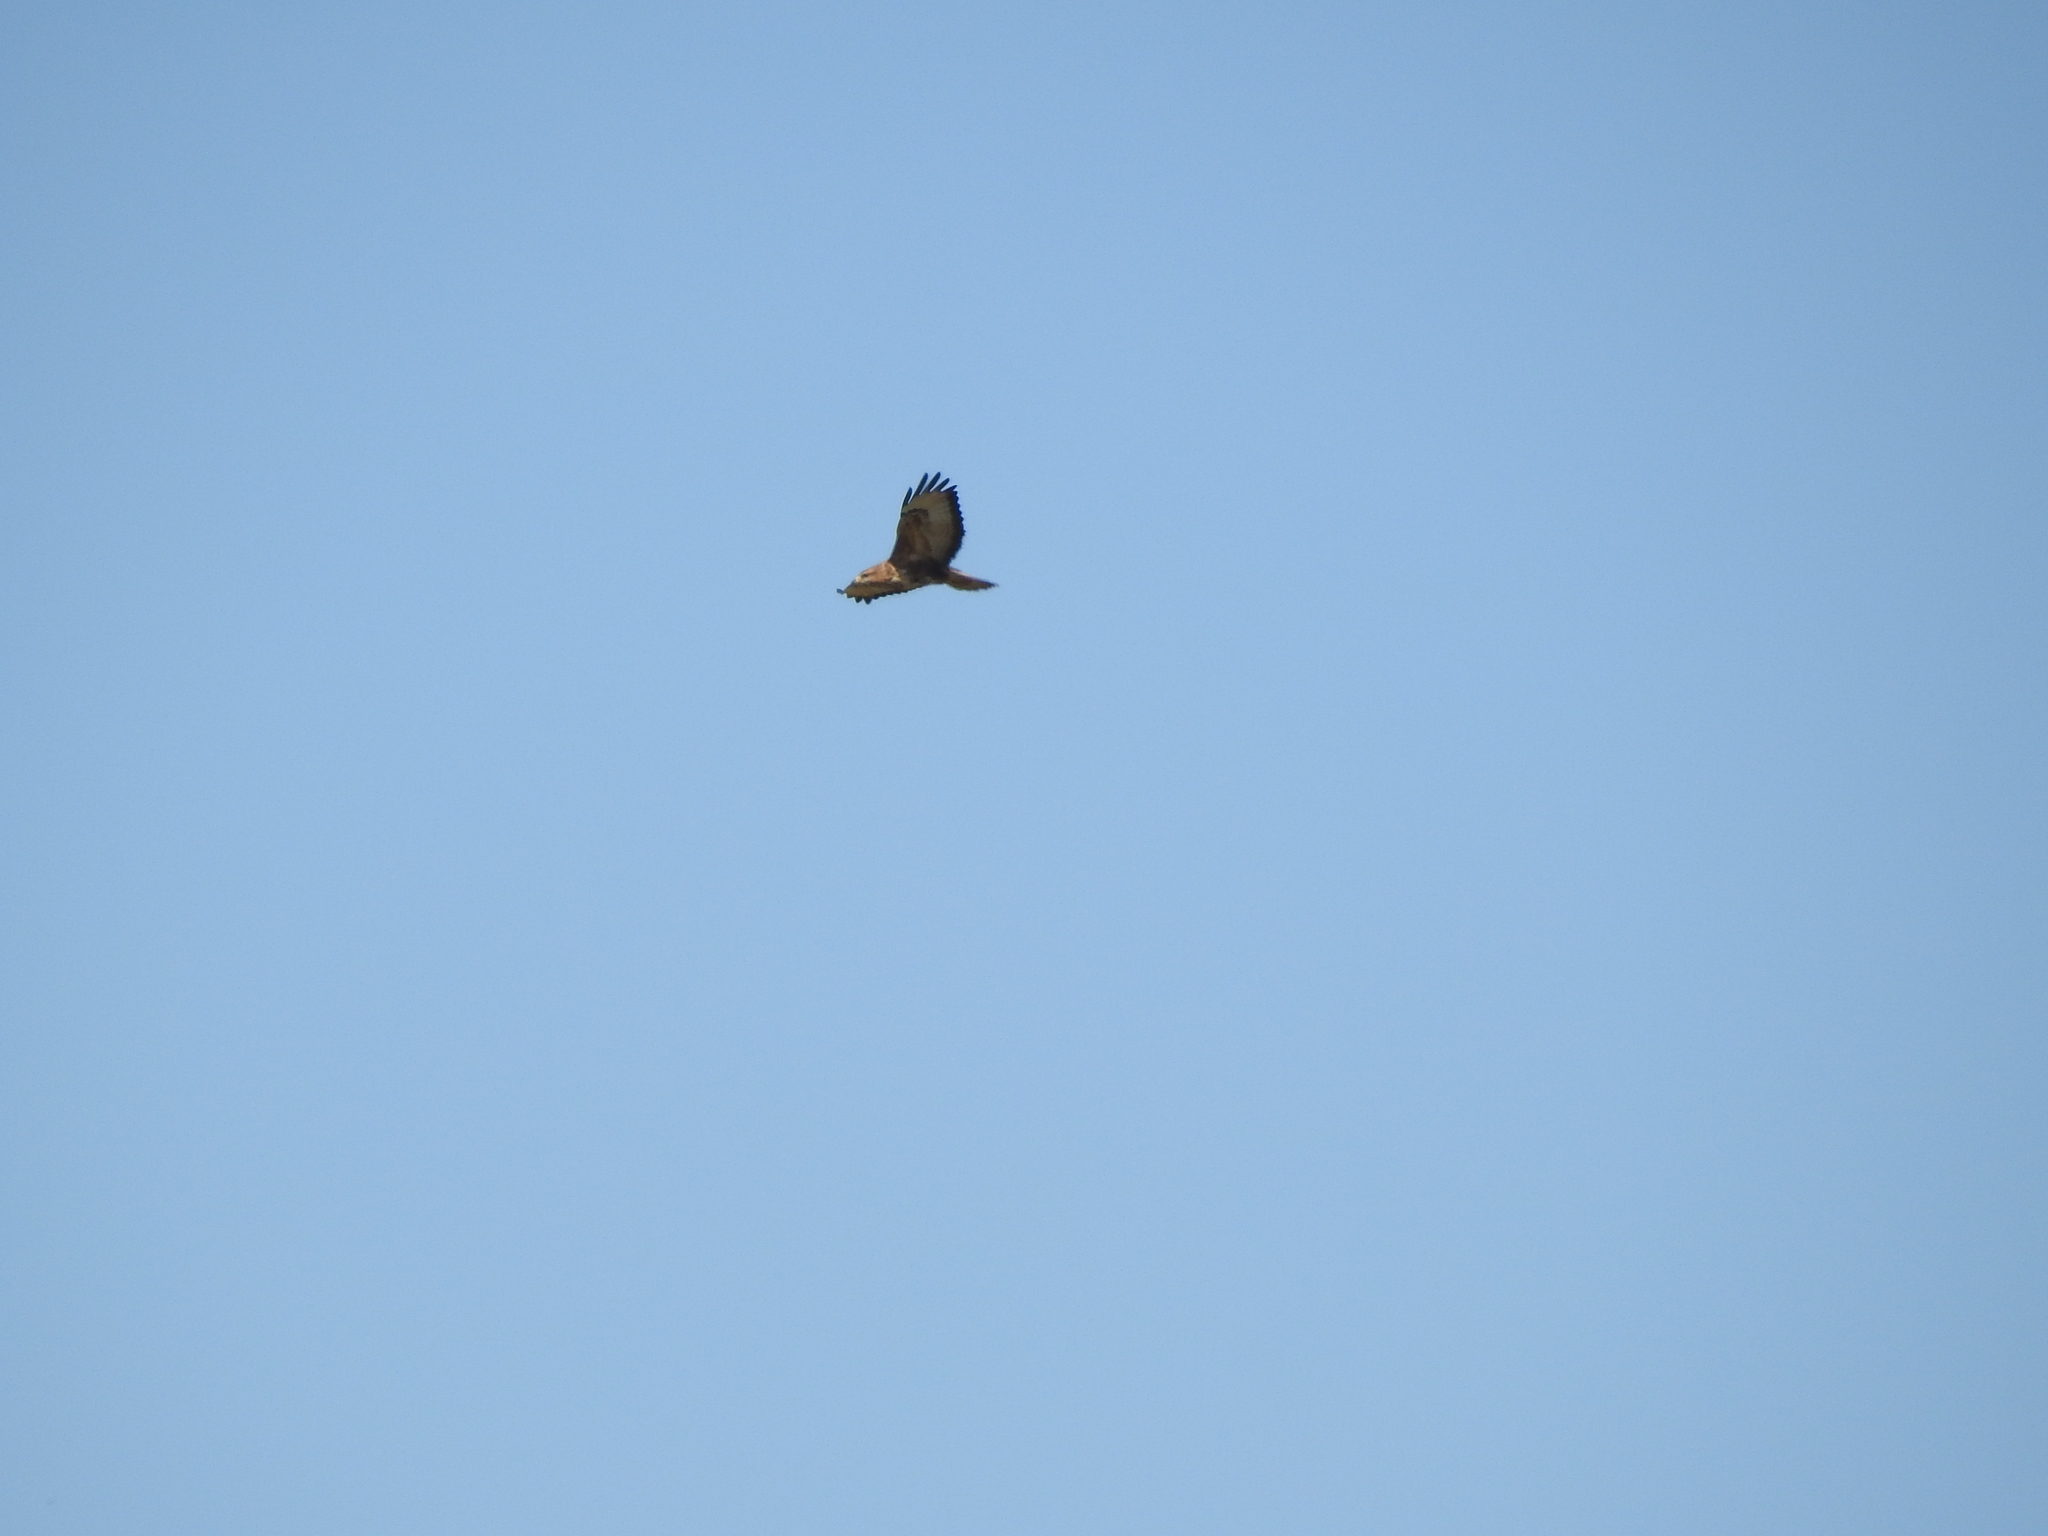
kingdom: Animalia
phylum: Chordata
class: Aves
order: Accipitriformes
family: Accipitridae
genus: Buteo
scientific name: Buteo buteo
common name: Common buzzard
